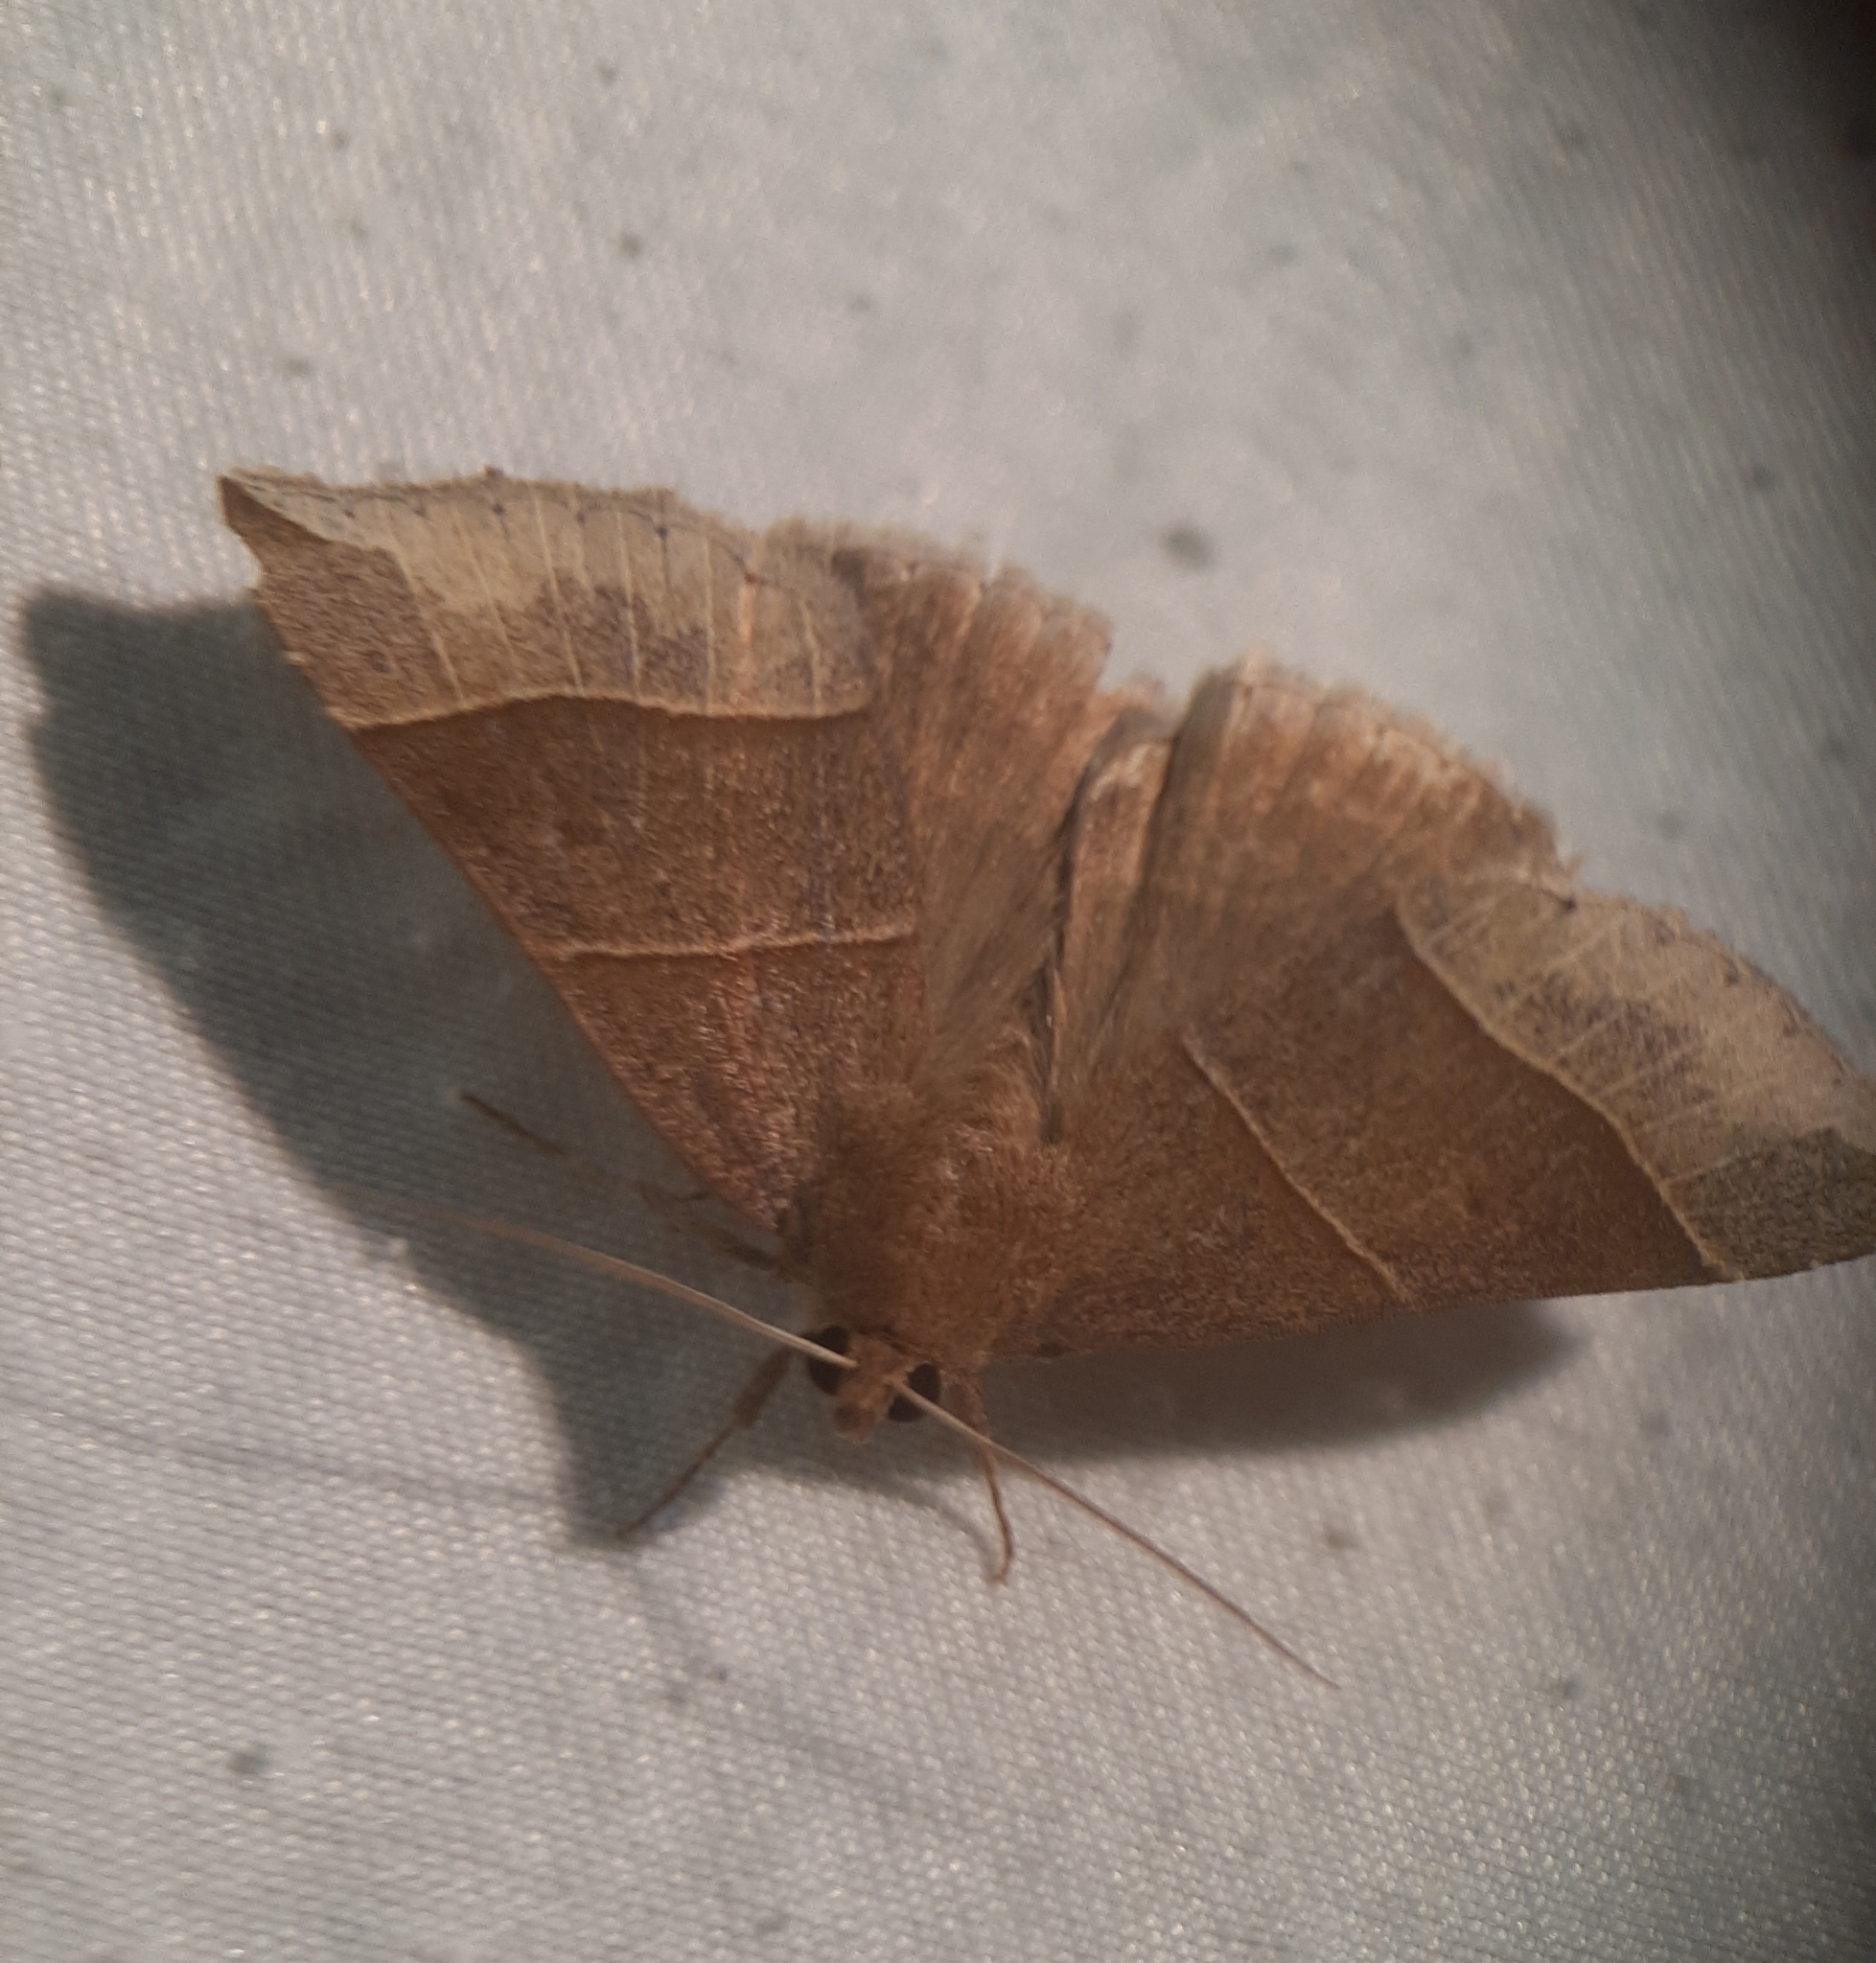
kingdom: Animalia
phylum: Arthropoda
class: Insecta
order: Lepidoptera
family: Erebidae
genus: Parallelia
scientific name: Parallelia bistriaris
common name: Maple looper moth
